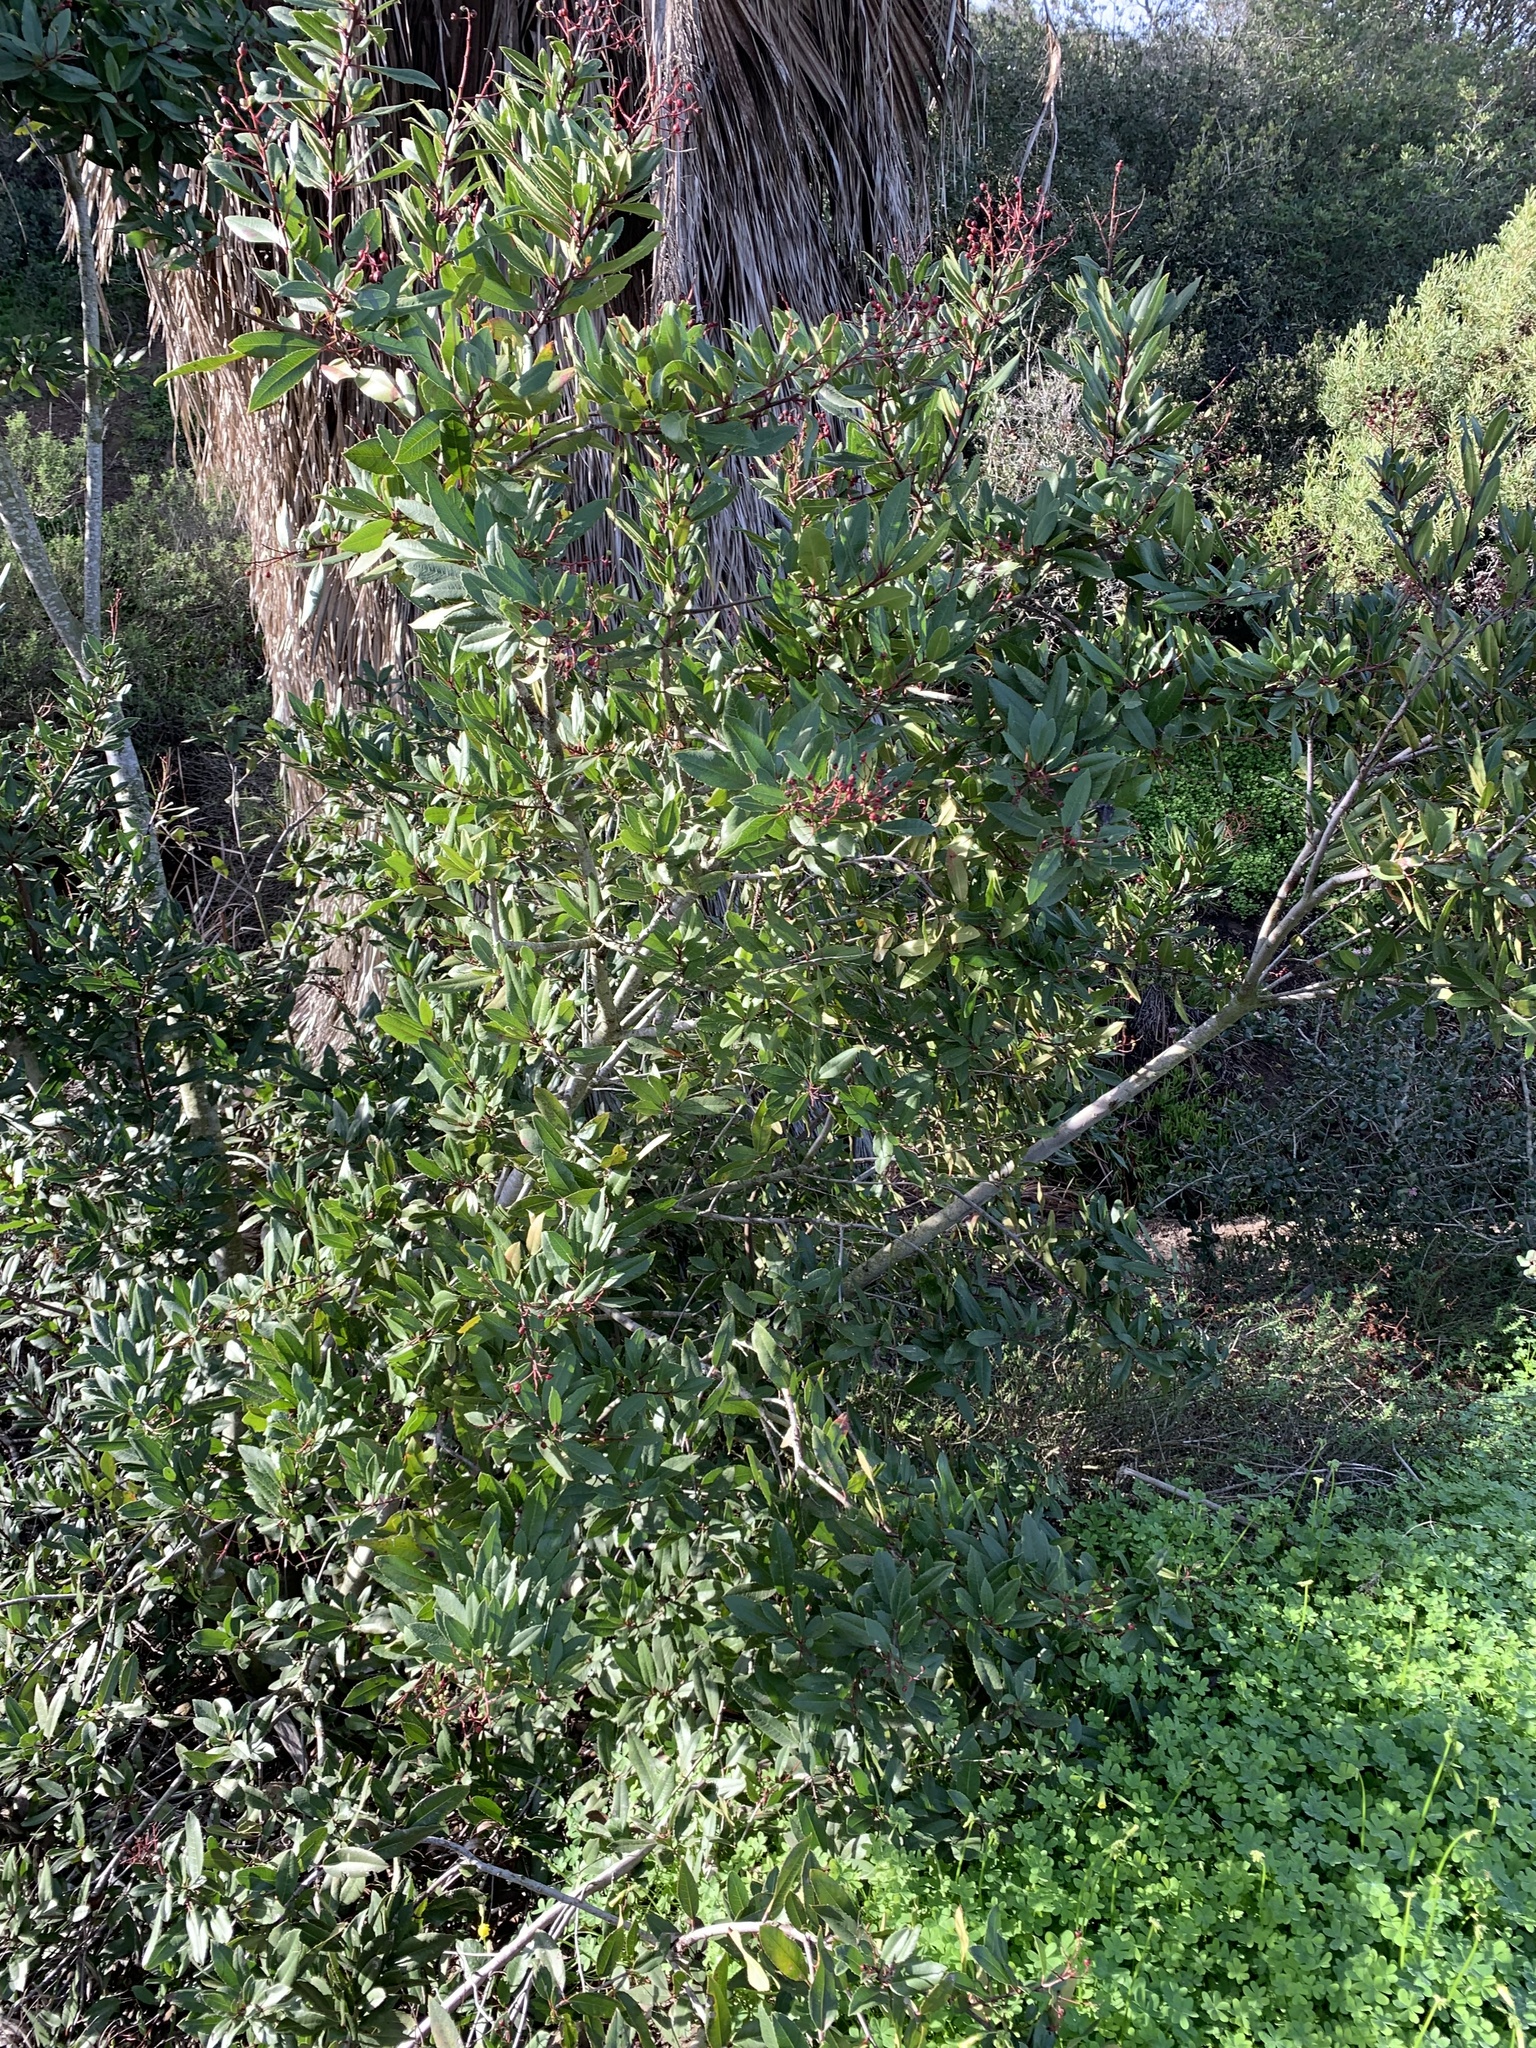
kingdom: Plantae
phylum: Tracheophyta
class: Magnoliopsida
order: Rosales
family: Rosaceae
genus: Heteromeles
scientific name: Heteromeles arbutifolia
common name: California-holly
